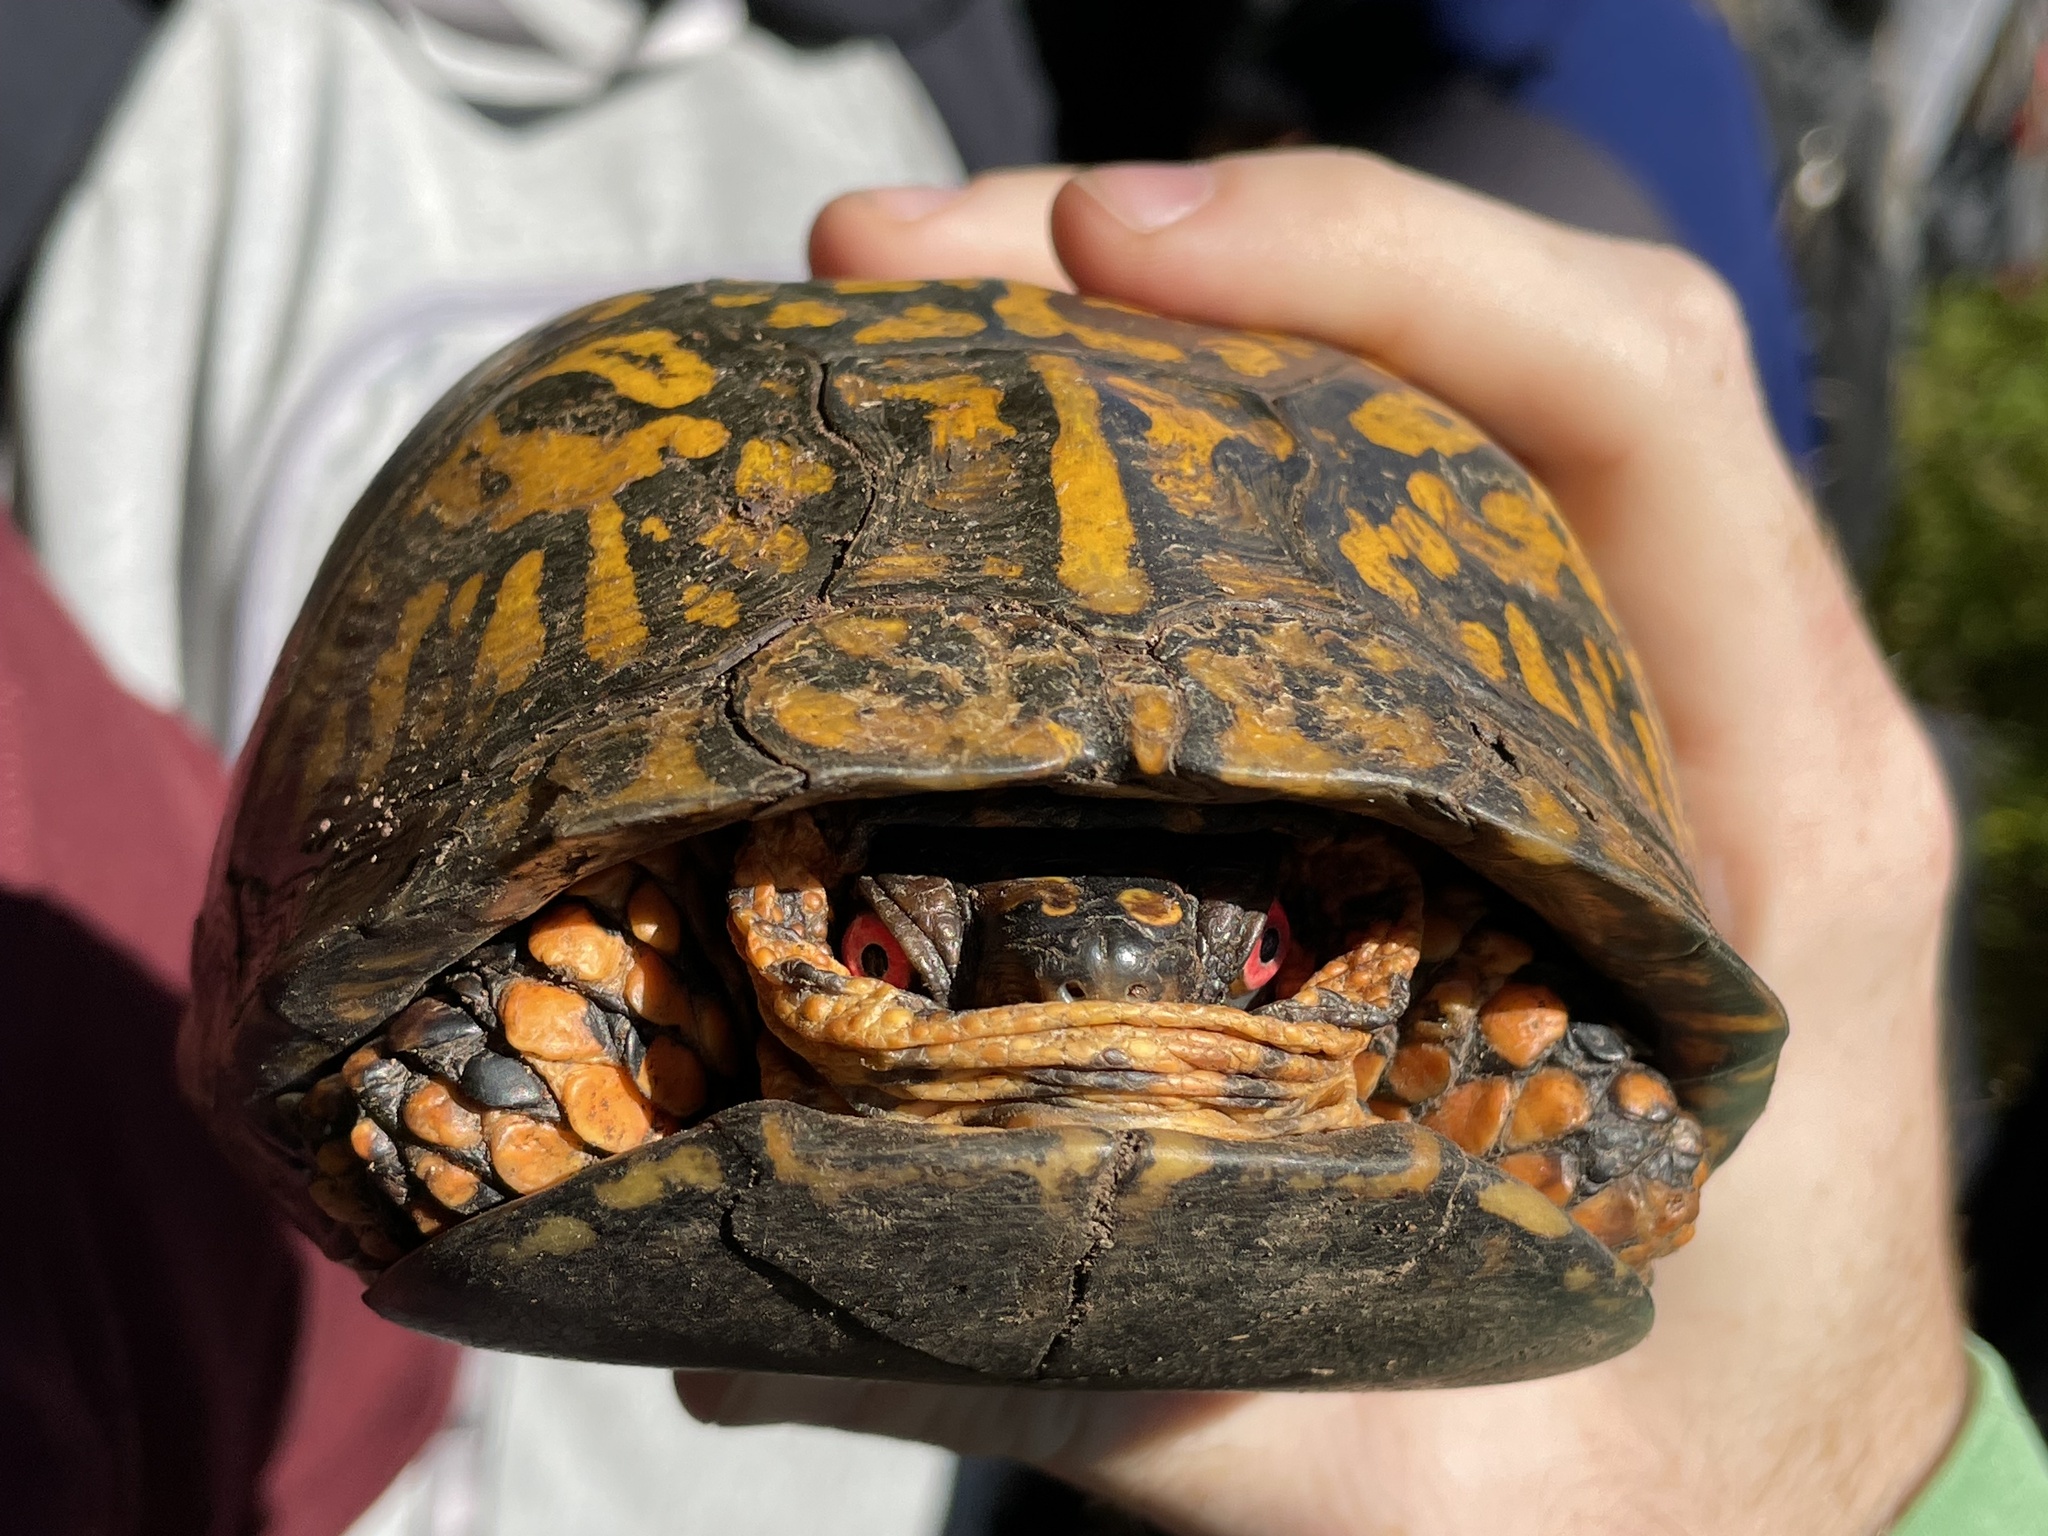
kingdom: Animalia
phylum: Chordata
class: Testudines
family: Emydidae
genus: Terrapene
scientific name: Terrapene carolina
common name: Common box turtle
